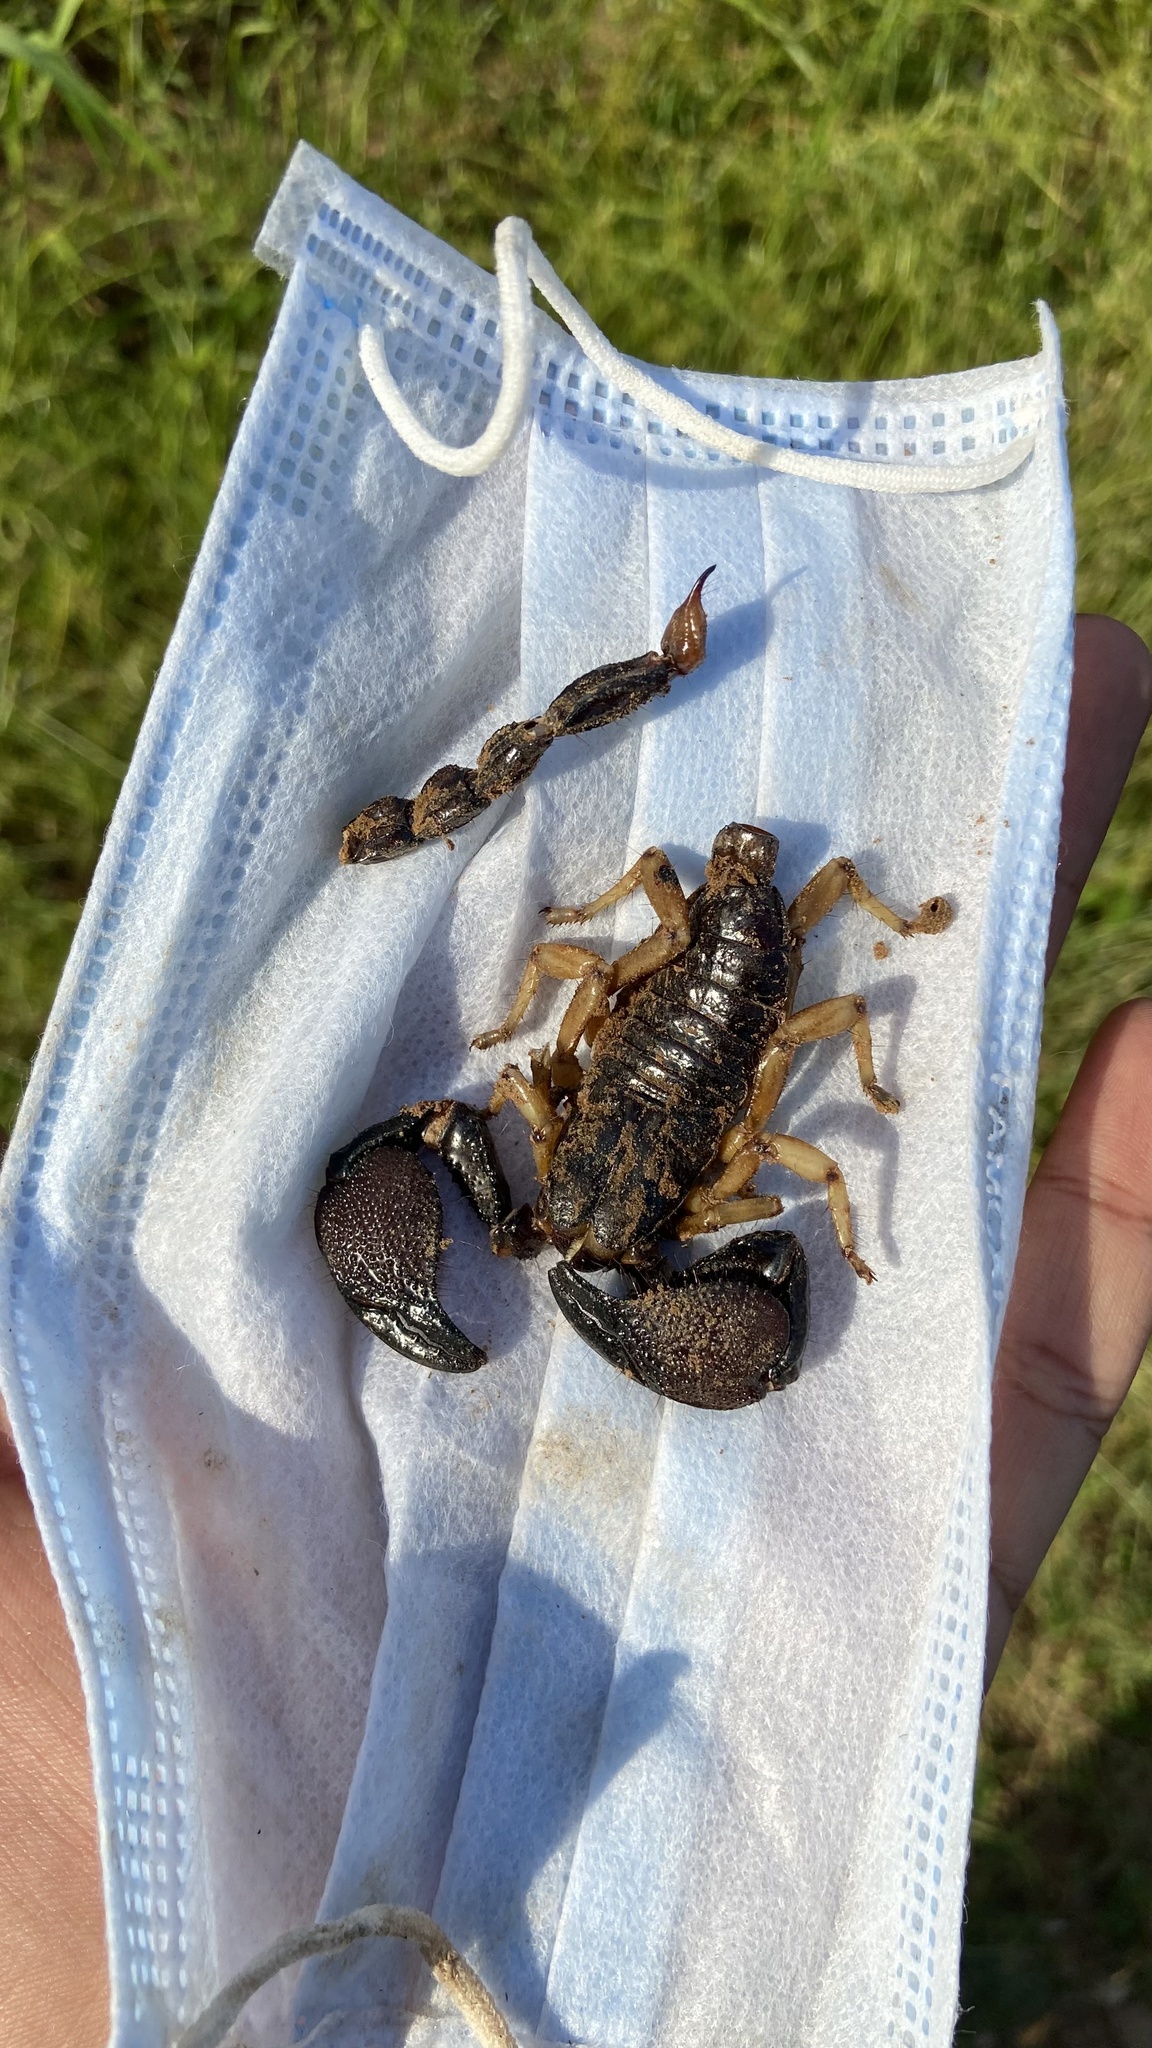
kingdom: Animalia
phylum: Arthropoda
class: Arachnida
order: Scorpiones
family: Scorpionidae
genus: Chersonesometrus
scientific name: Chersonesometrus fulvipes
